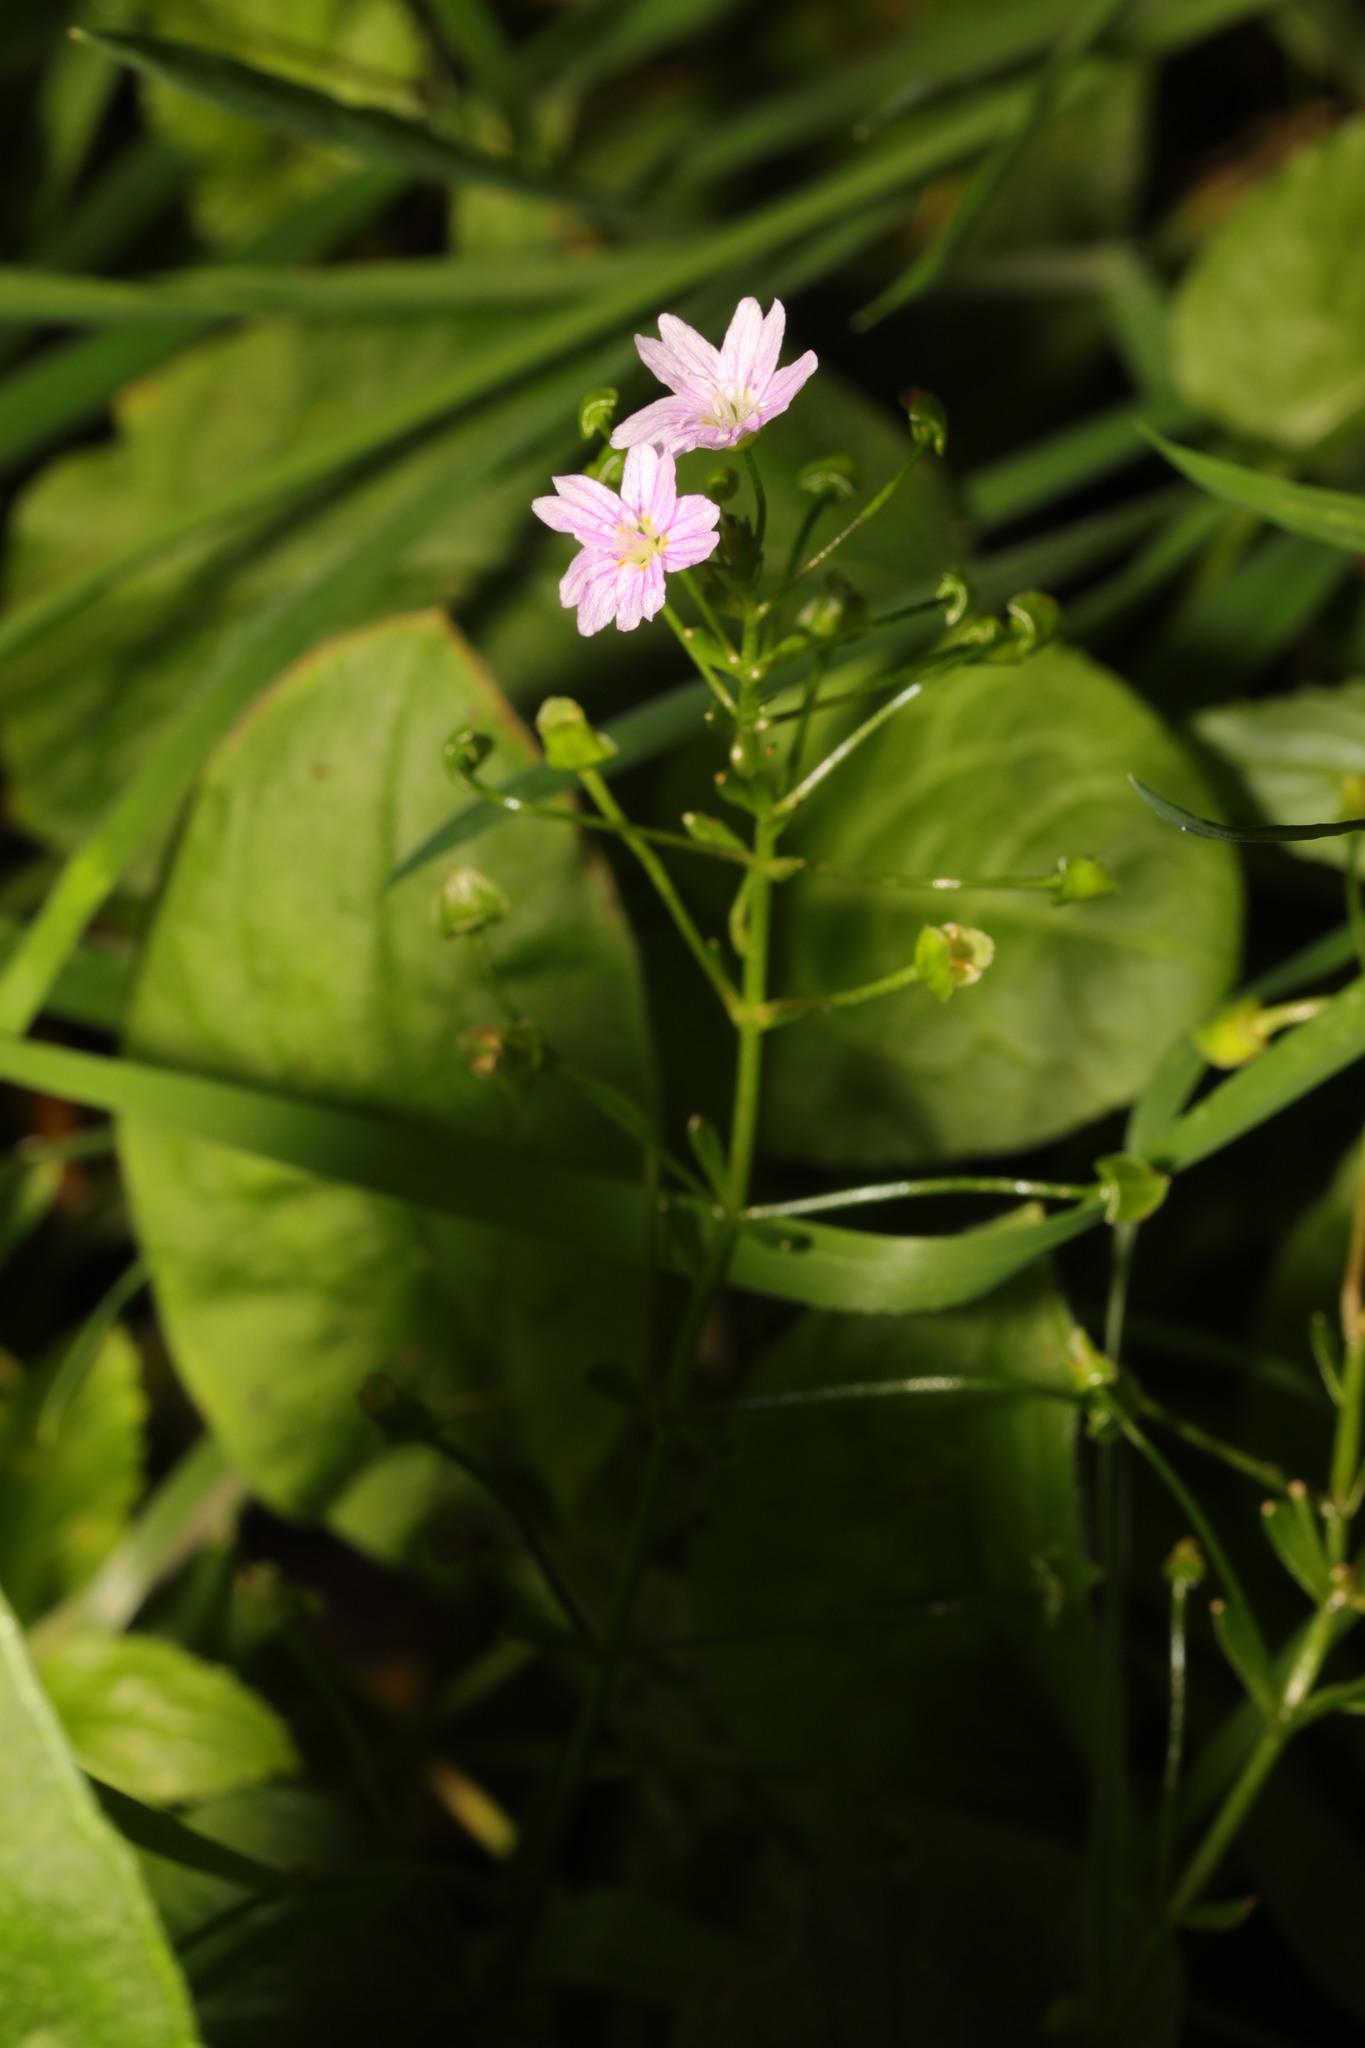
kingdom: Plantae
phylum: Tracheophyta
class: Magnoliopsida
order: Caryophyllales
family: Montiaceae
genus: Claytonia
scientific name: Claytonia sibirica
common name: Pink purslane
